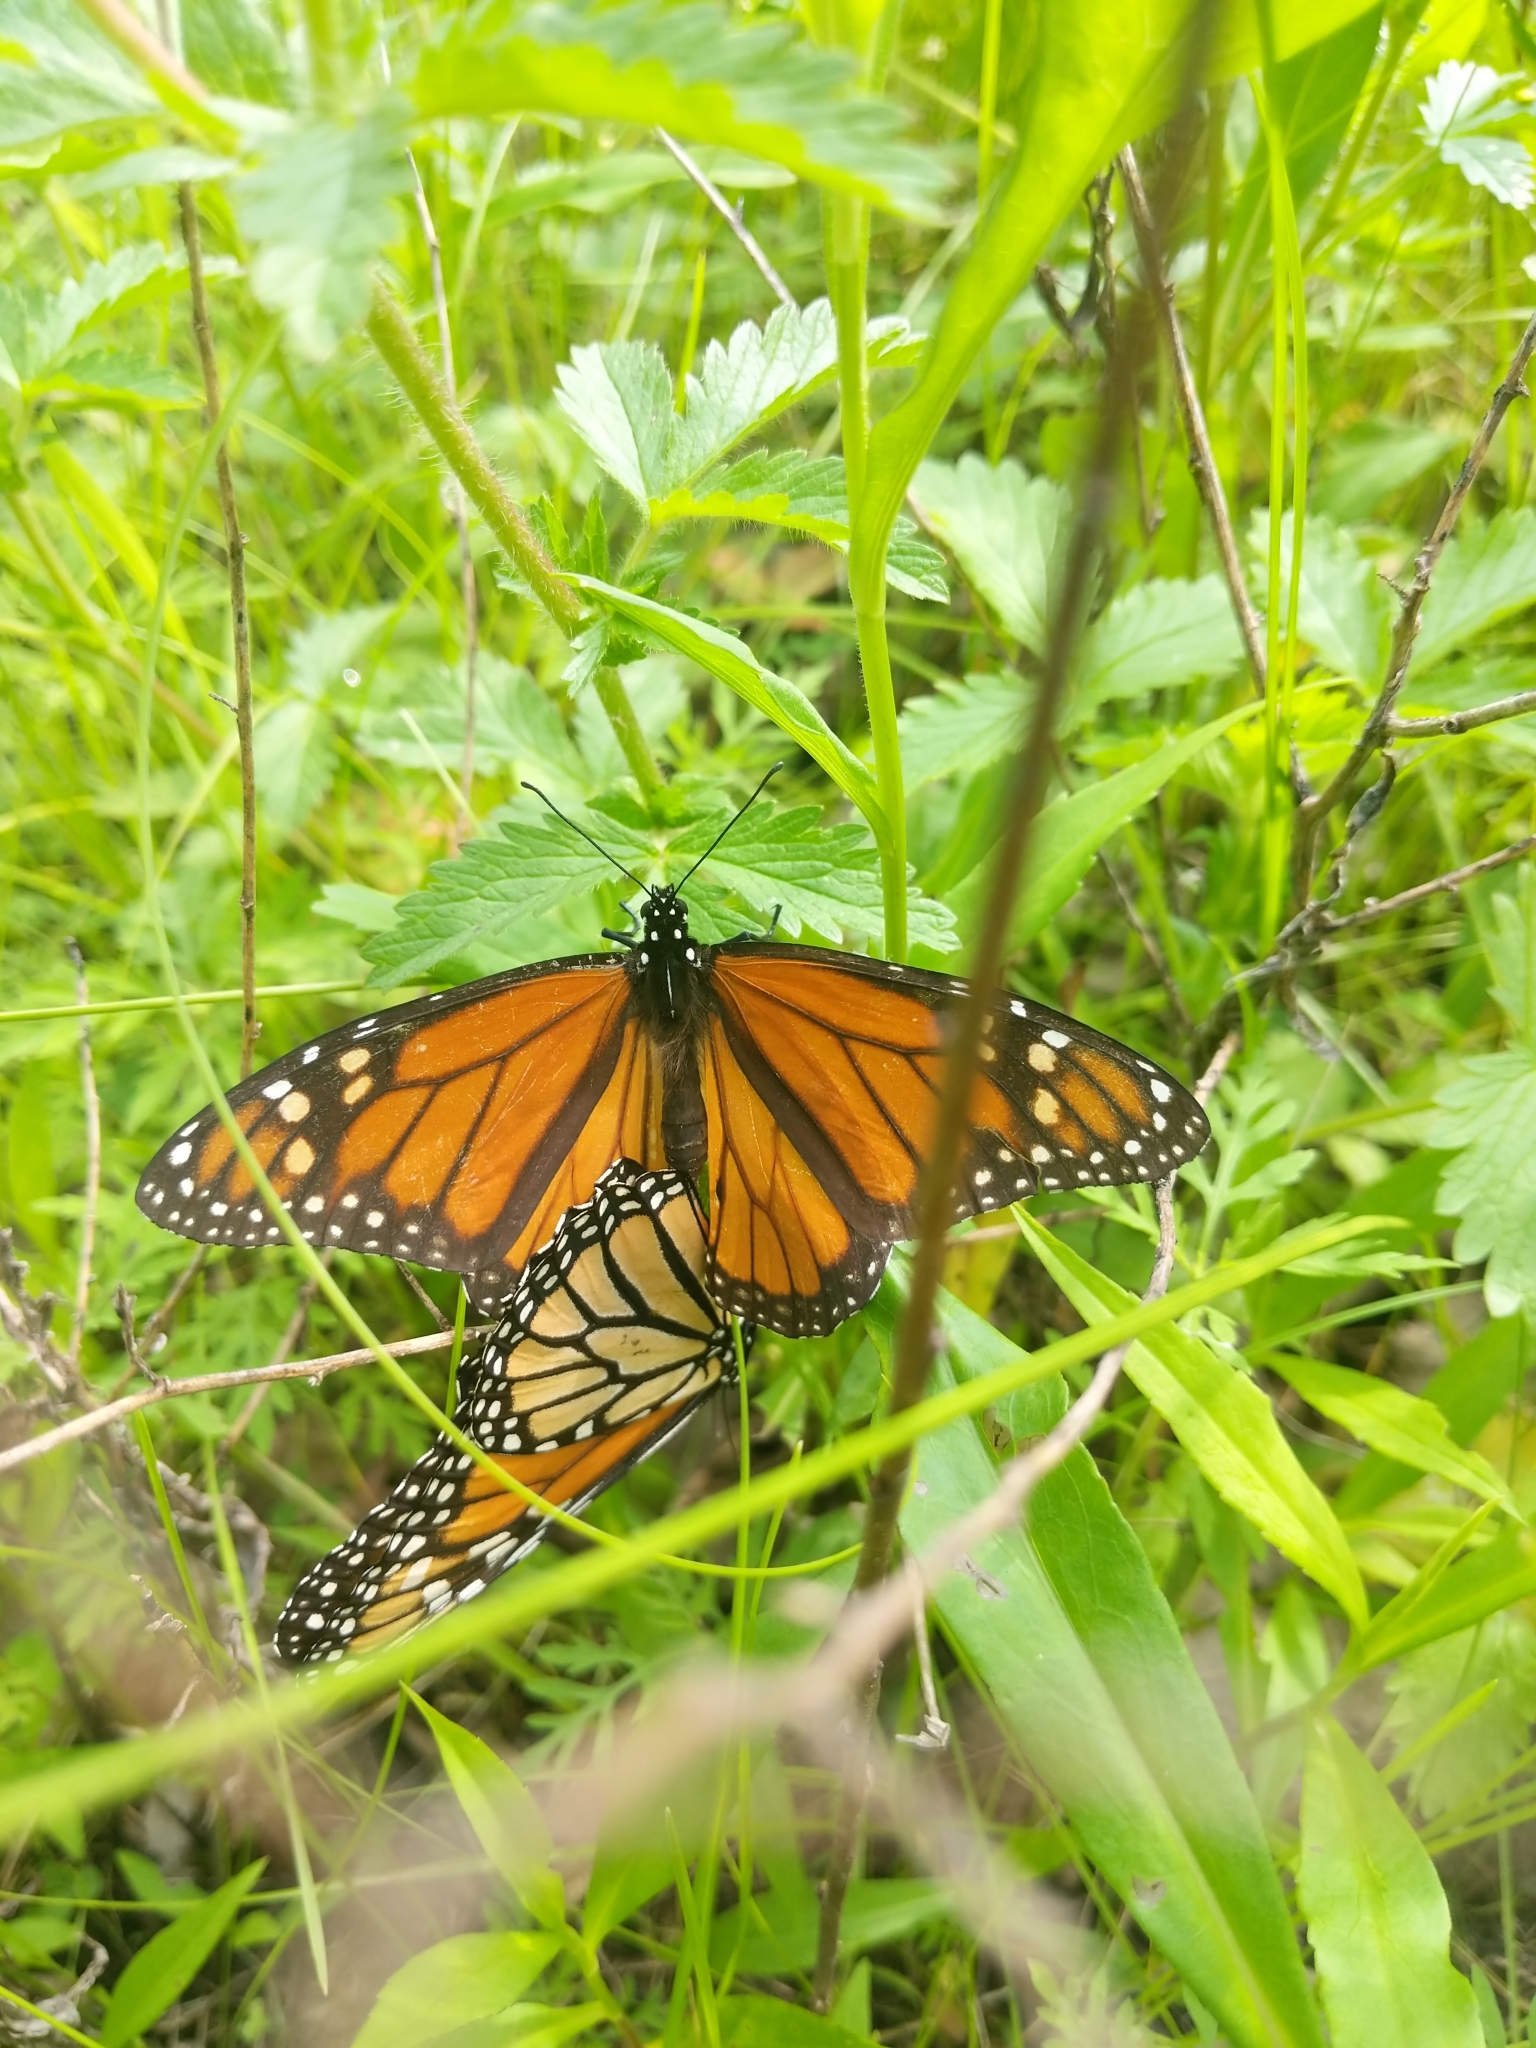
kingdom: Animalia
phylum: Arthropoda
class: Insecta
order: Lepidoptera
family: Nymphalidae
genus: Danaus
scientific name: Danaus plexippus
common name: Monarch
